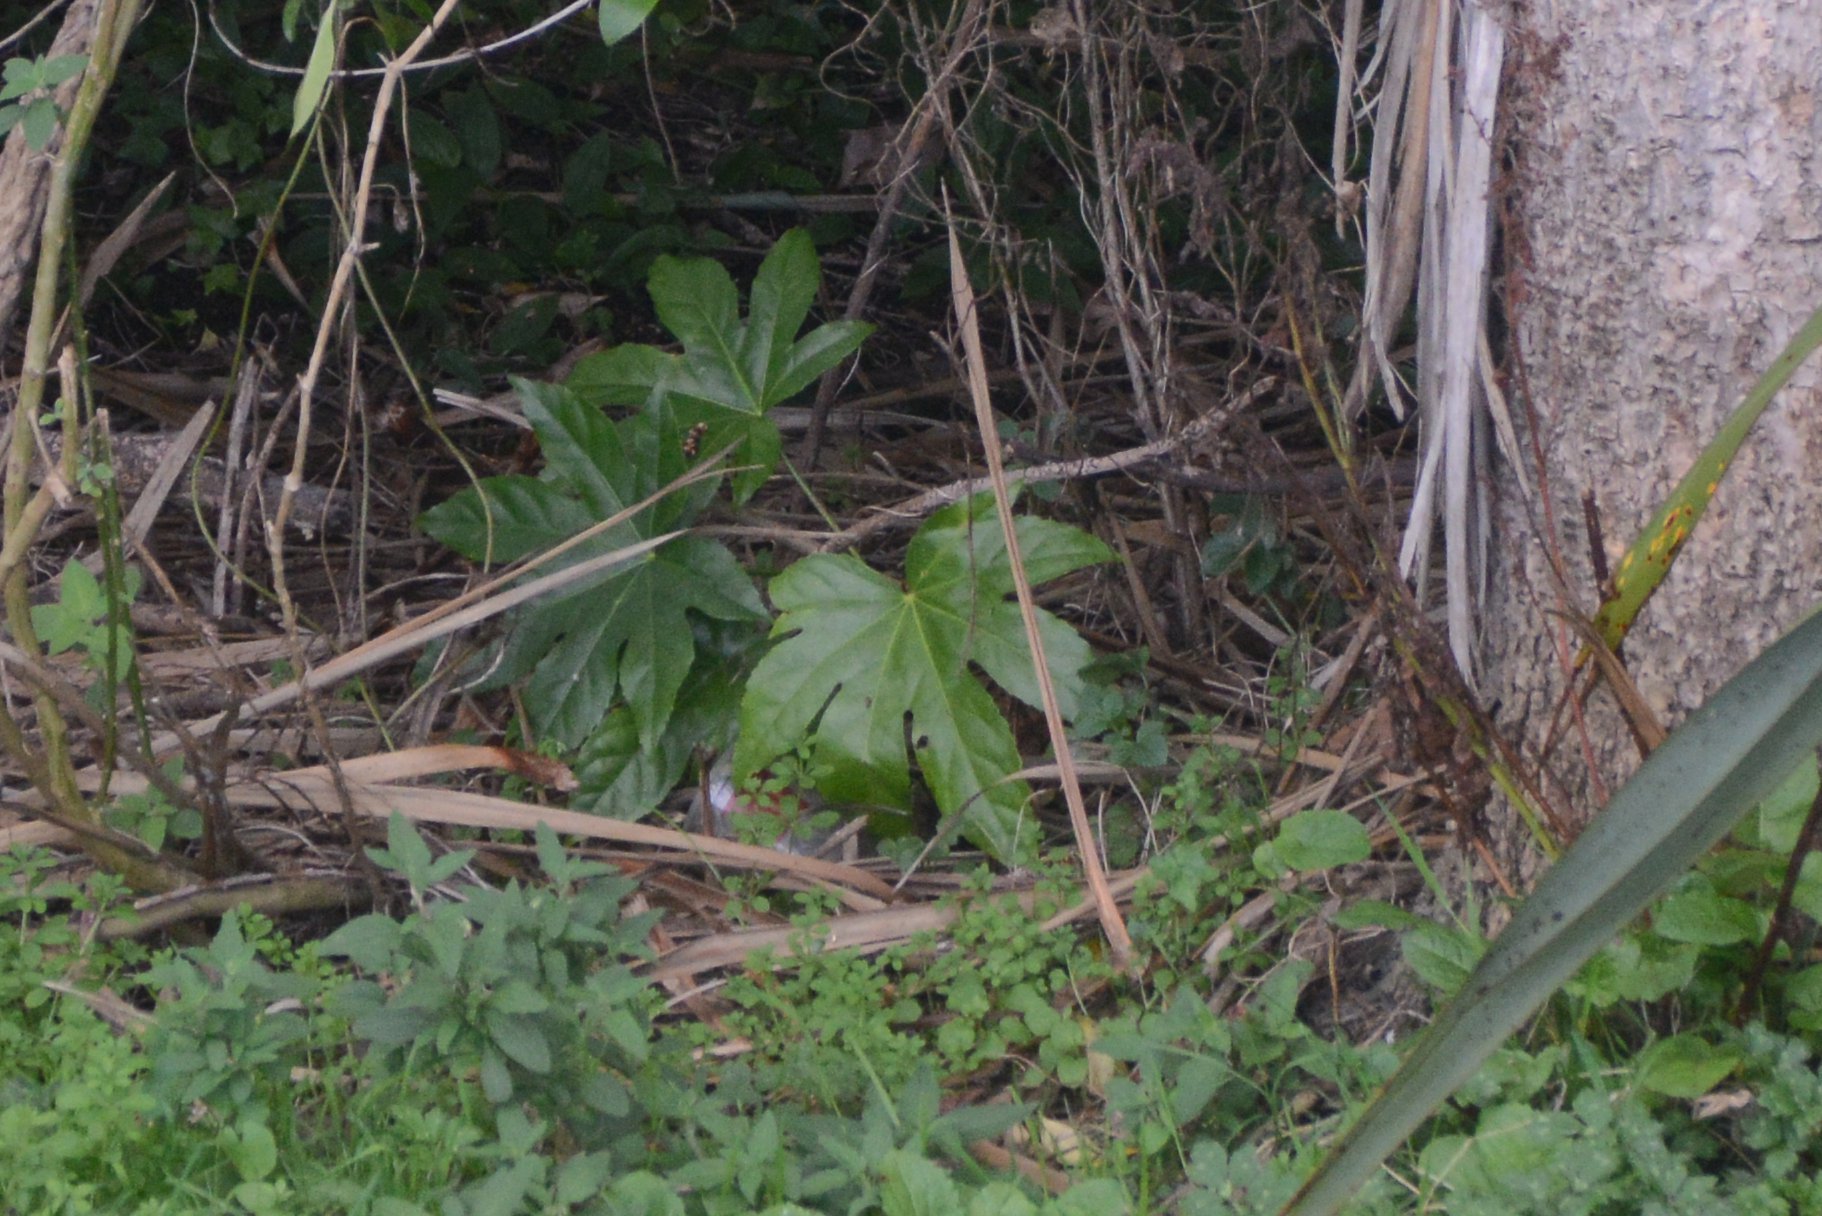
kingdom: Plantae
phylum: Tracheophyta
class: Magnoliopsida
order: Apiales
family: Araliaceae
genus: Fatsia
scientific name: Fatsia japonica
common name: Fatsia
